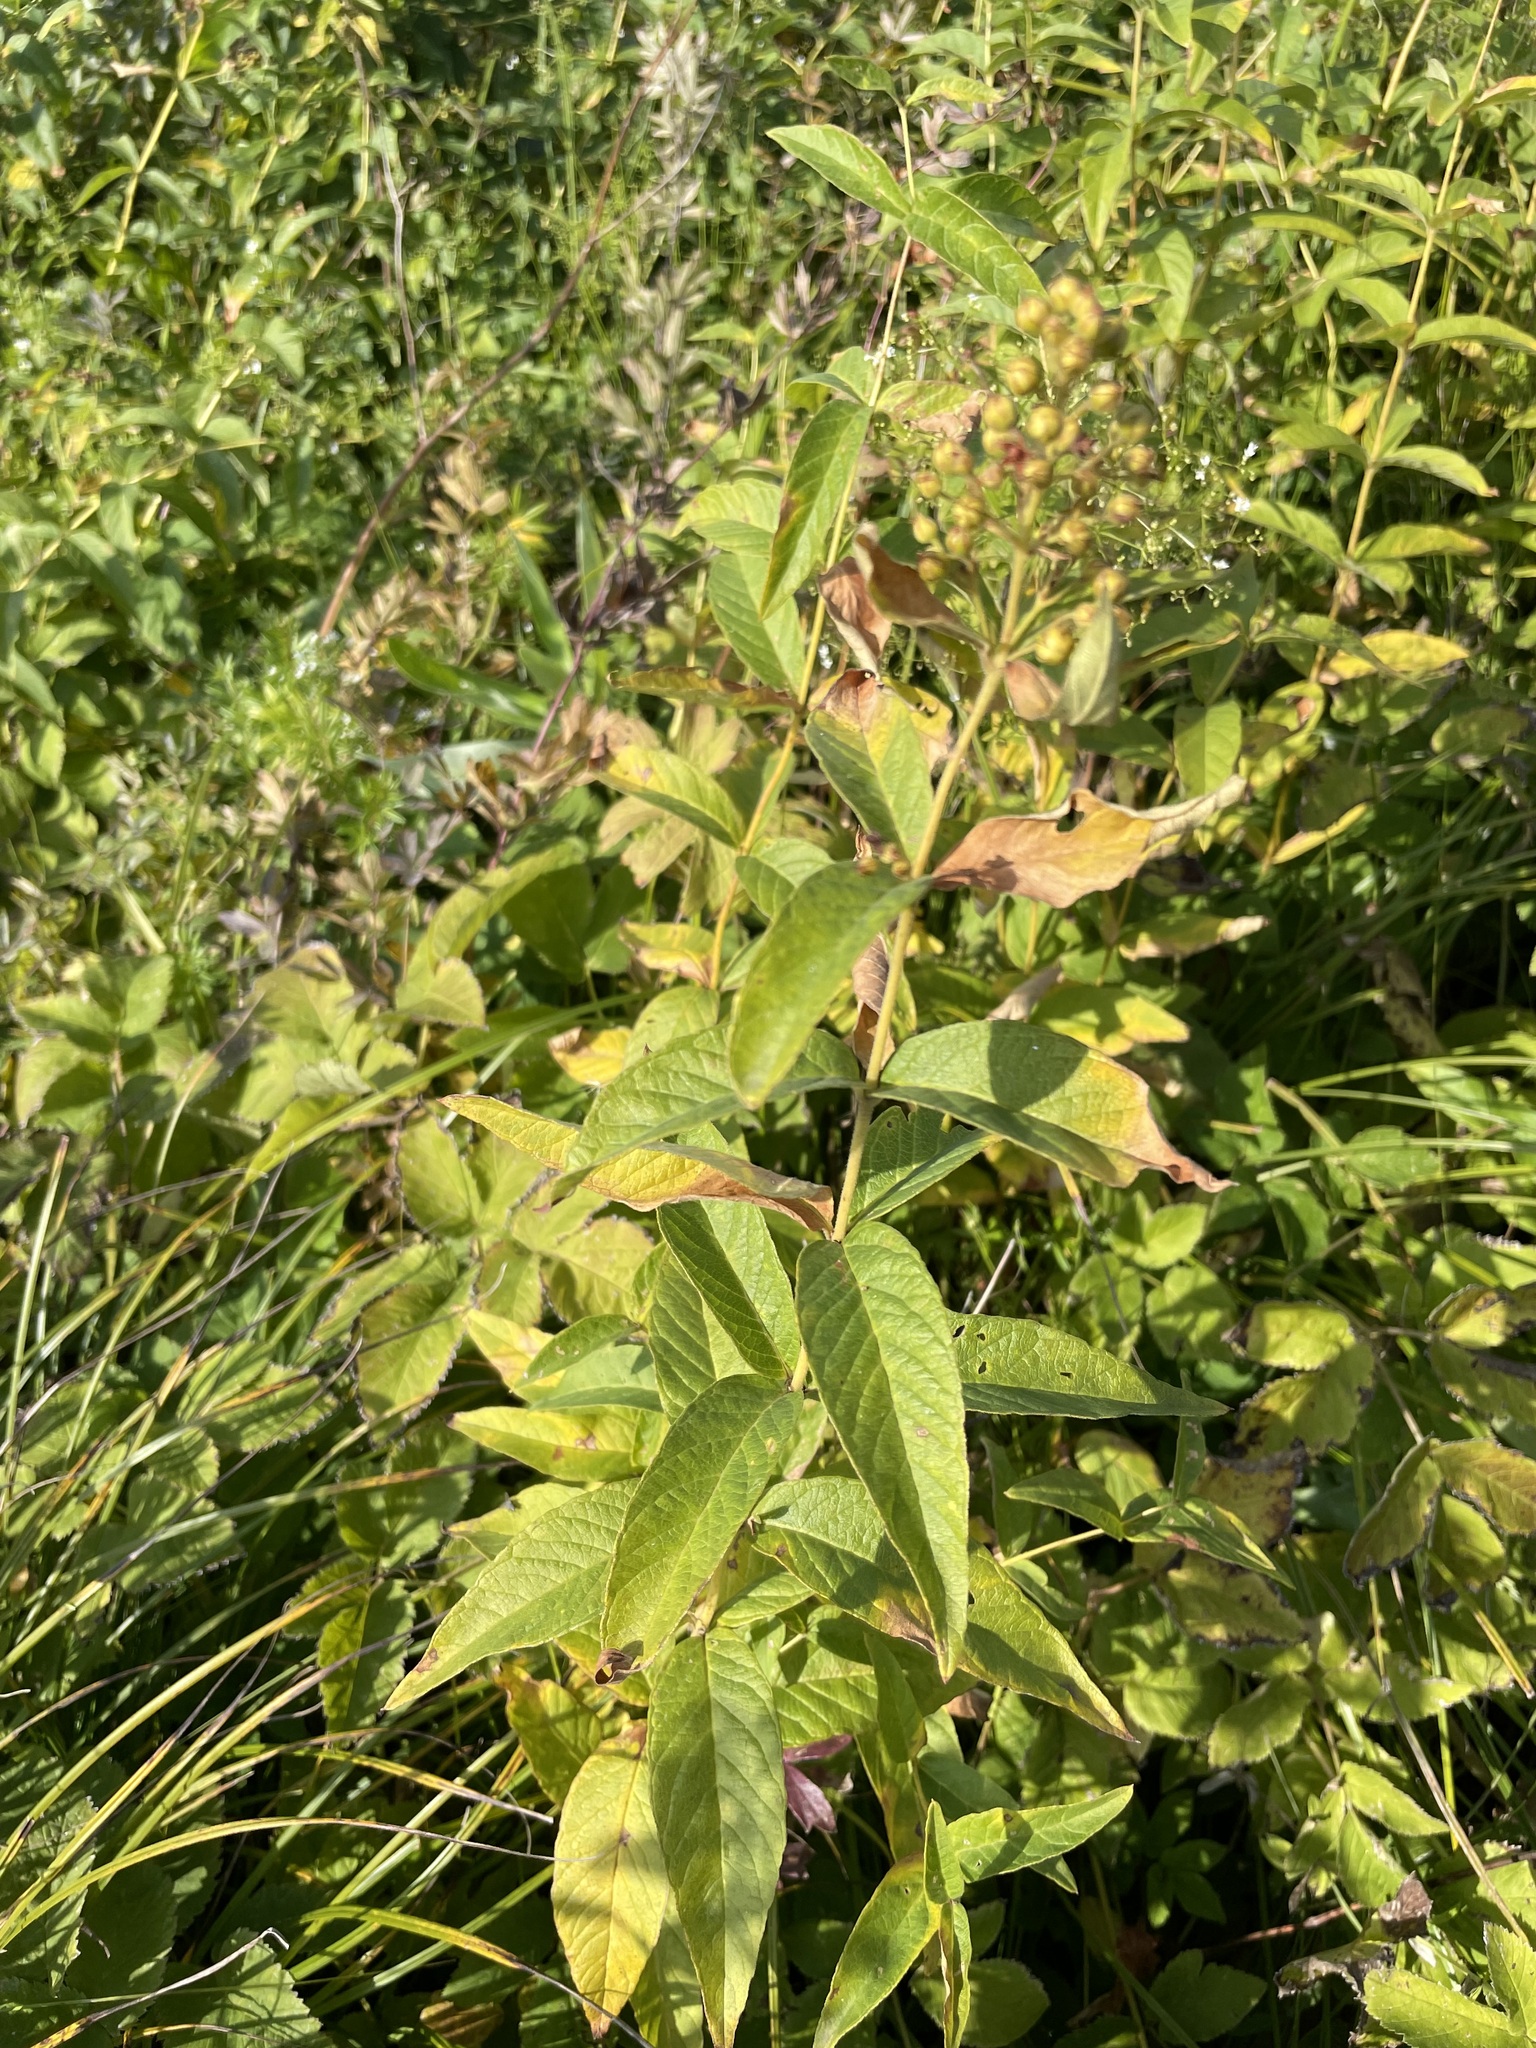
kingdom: Plantae
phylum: Tracheophyta
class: Magnoliopsida
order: Ericales
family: Primulaceae
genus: Lysimachia
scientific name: Lysimachia vulgaris
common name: Yellow loosestrife
